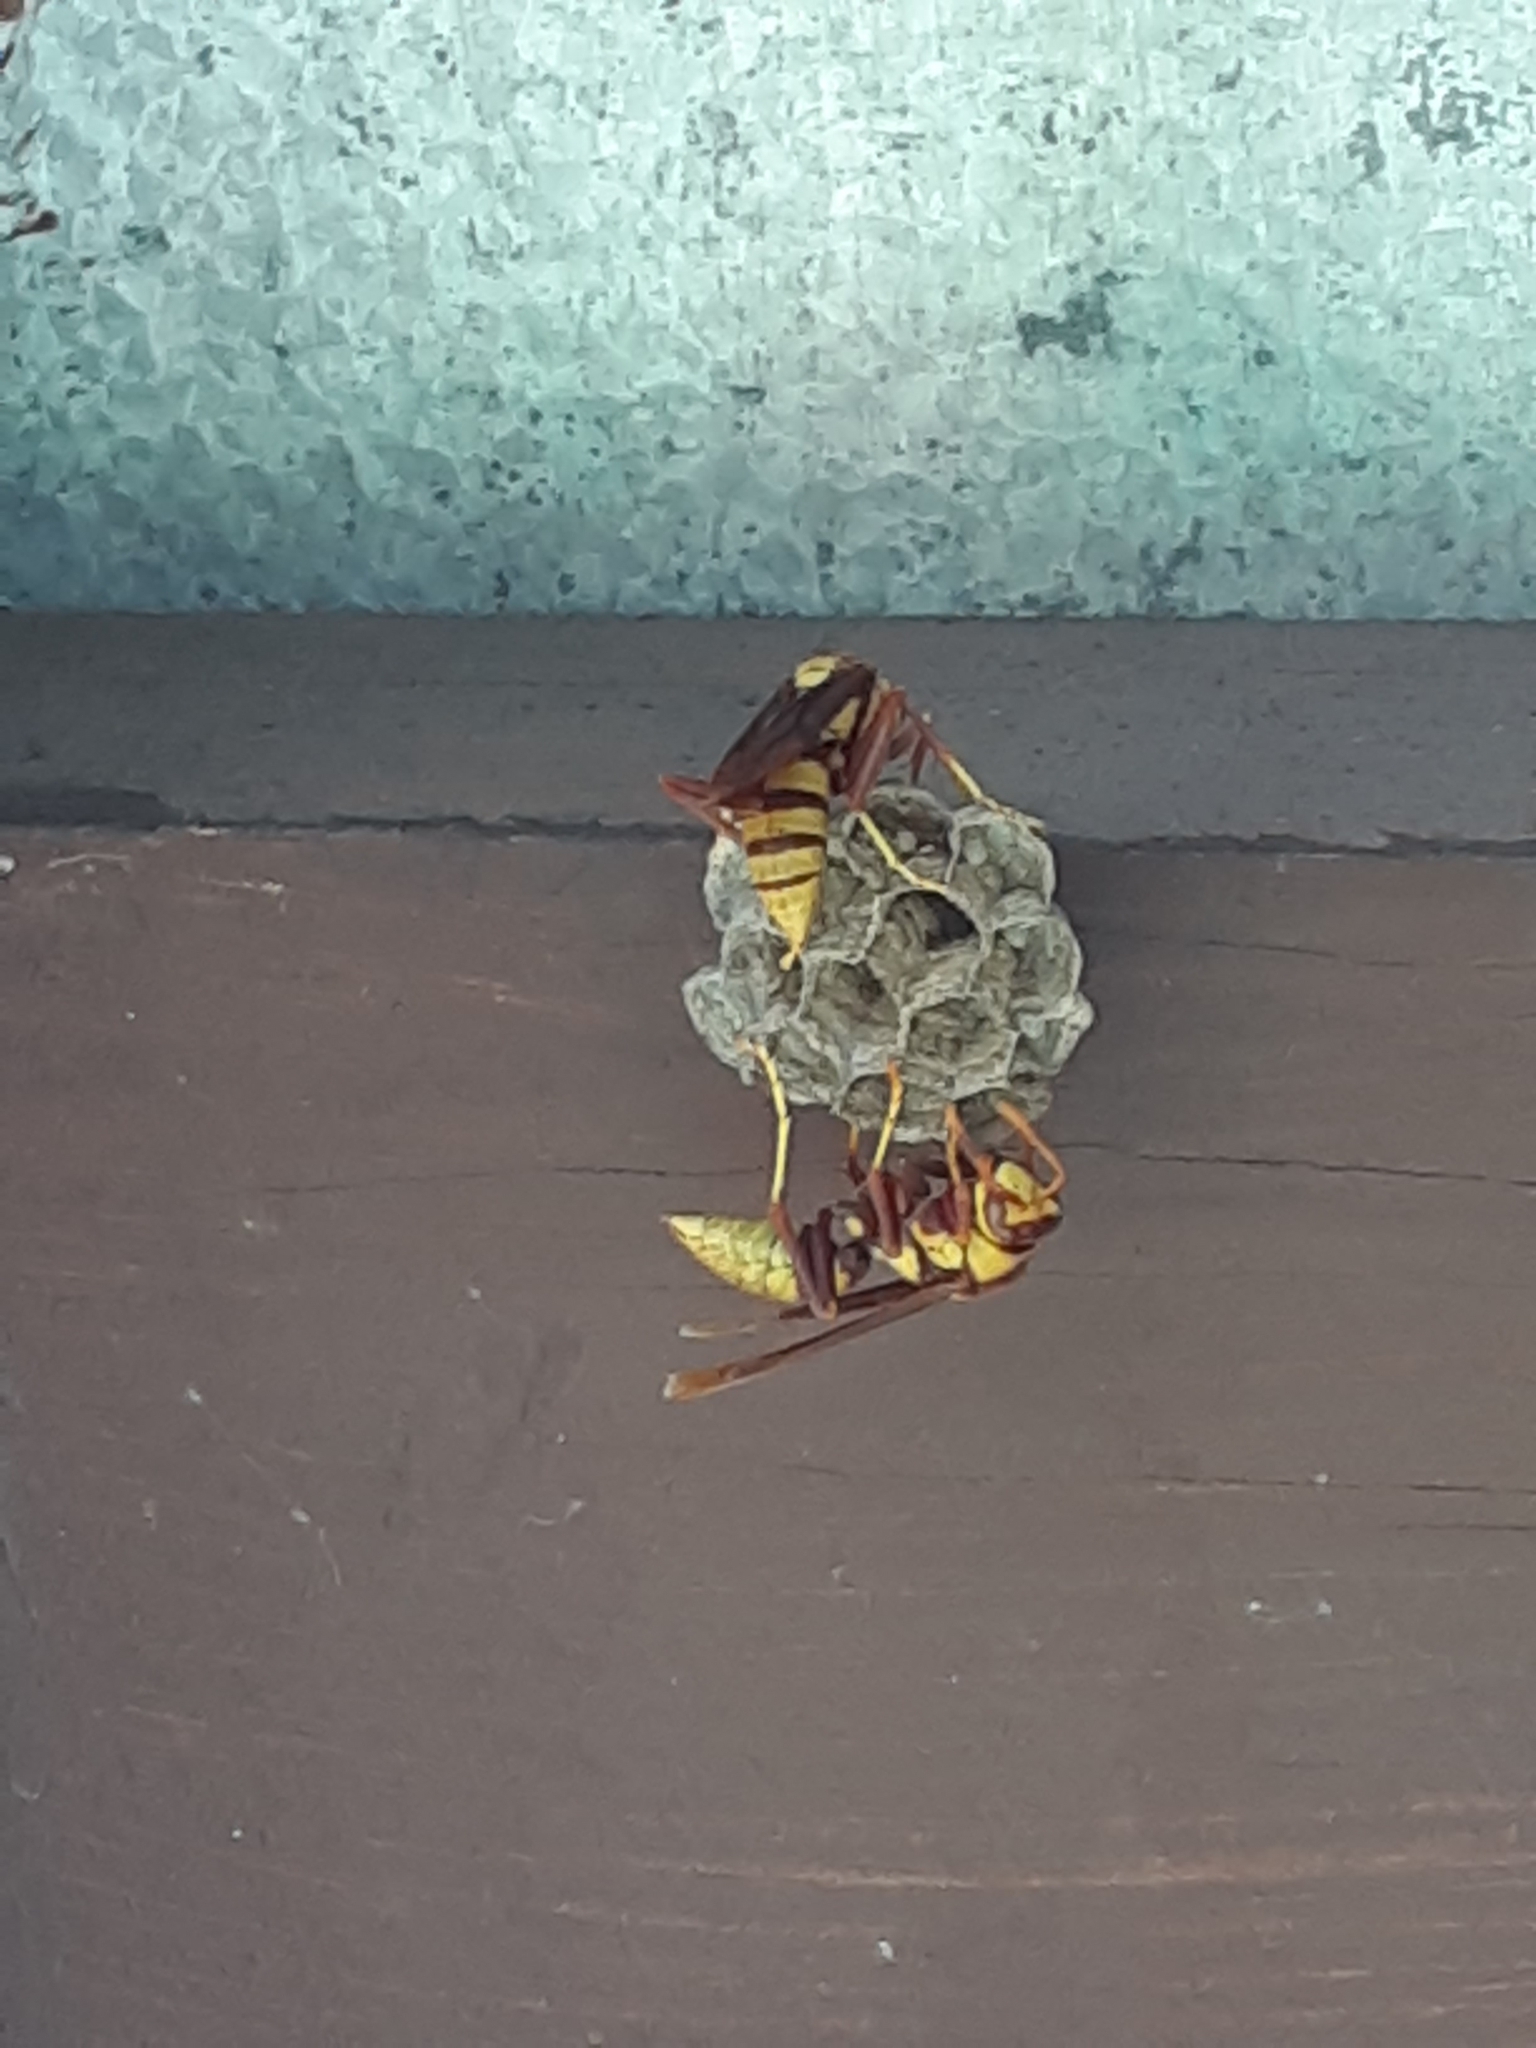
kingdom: Animalia
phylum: Arthropoda
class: Insecta
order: Hymenoptera
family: Eumenidae
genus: Polistes
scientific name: Polistes major
